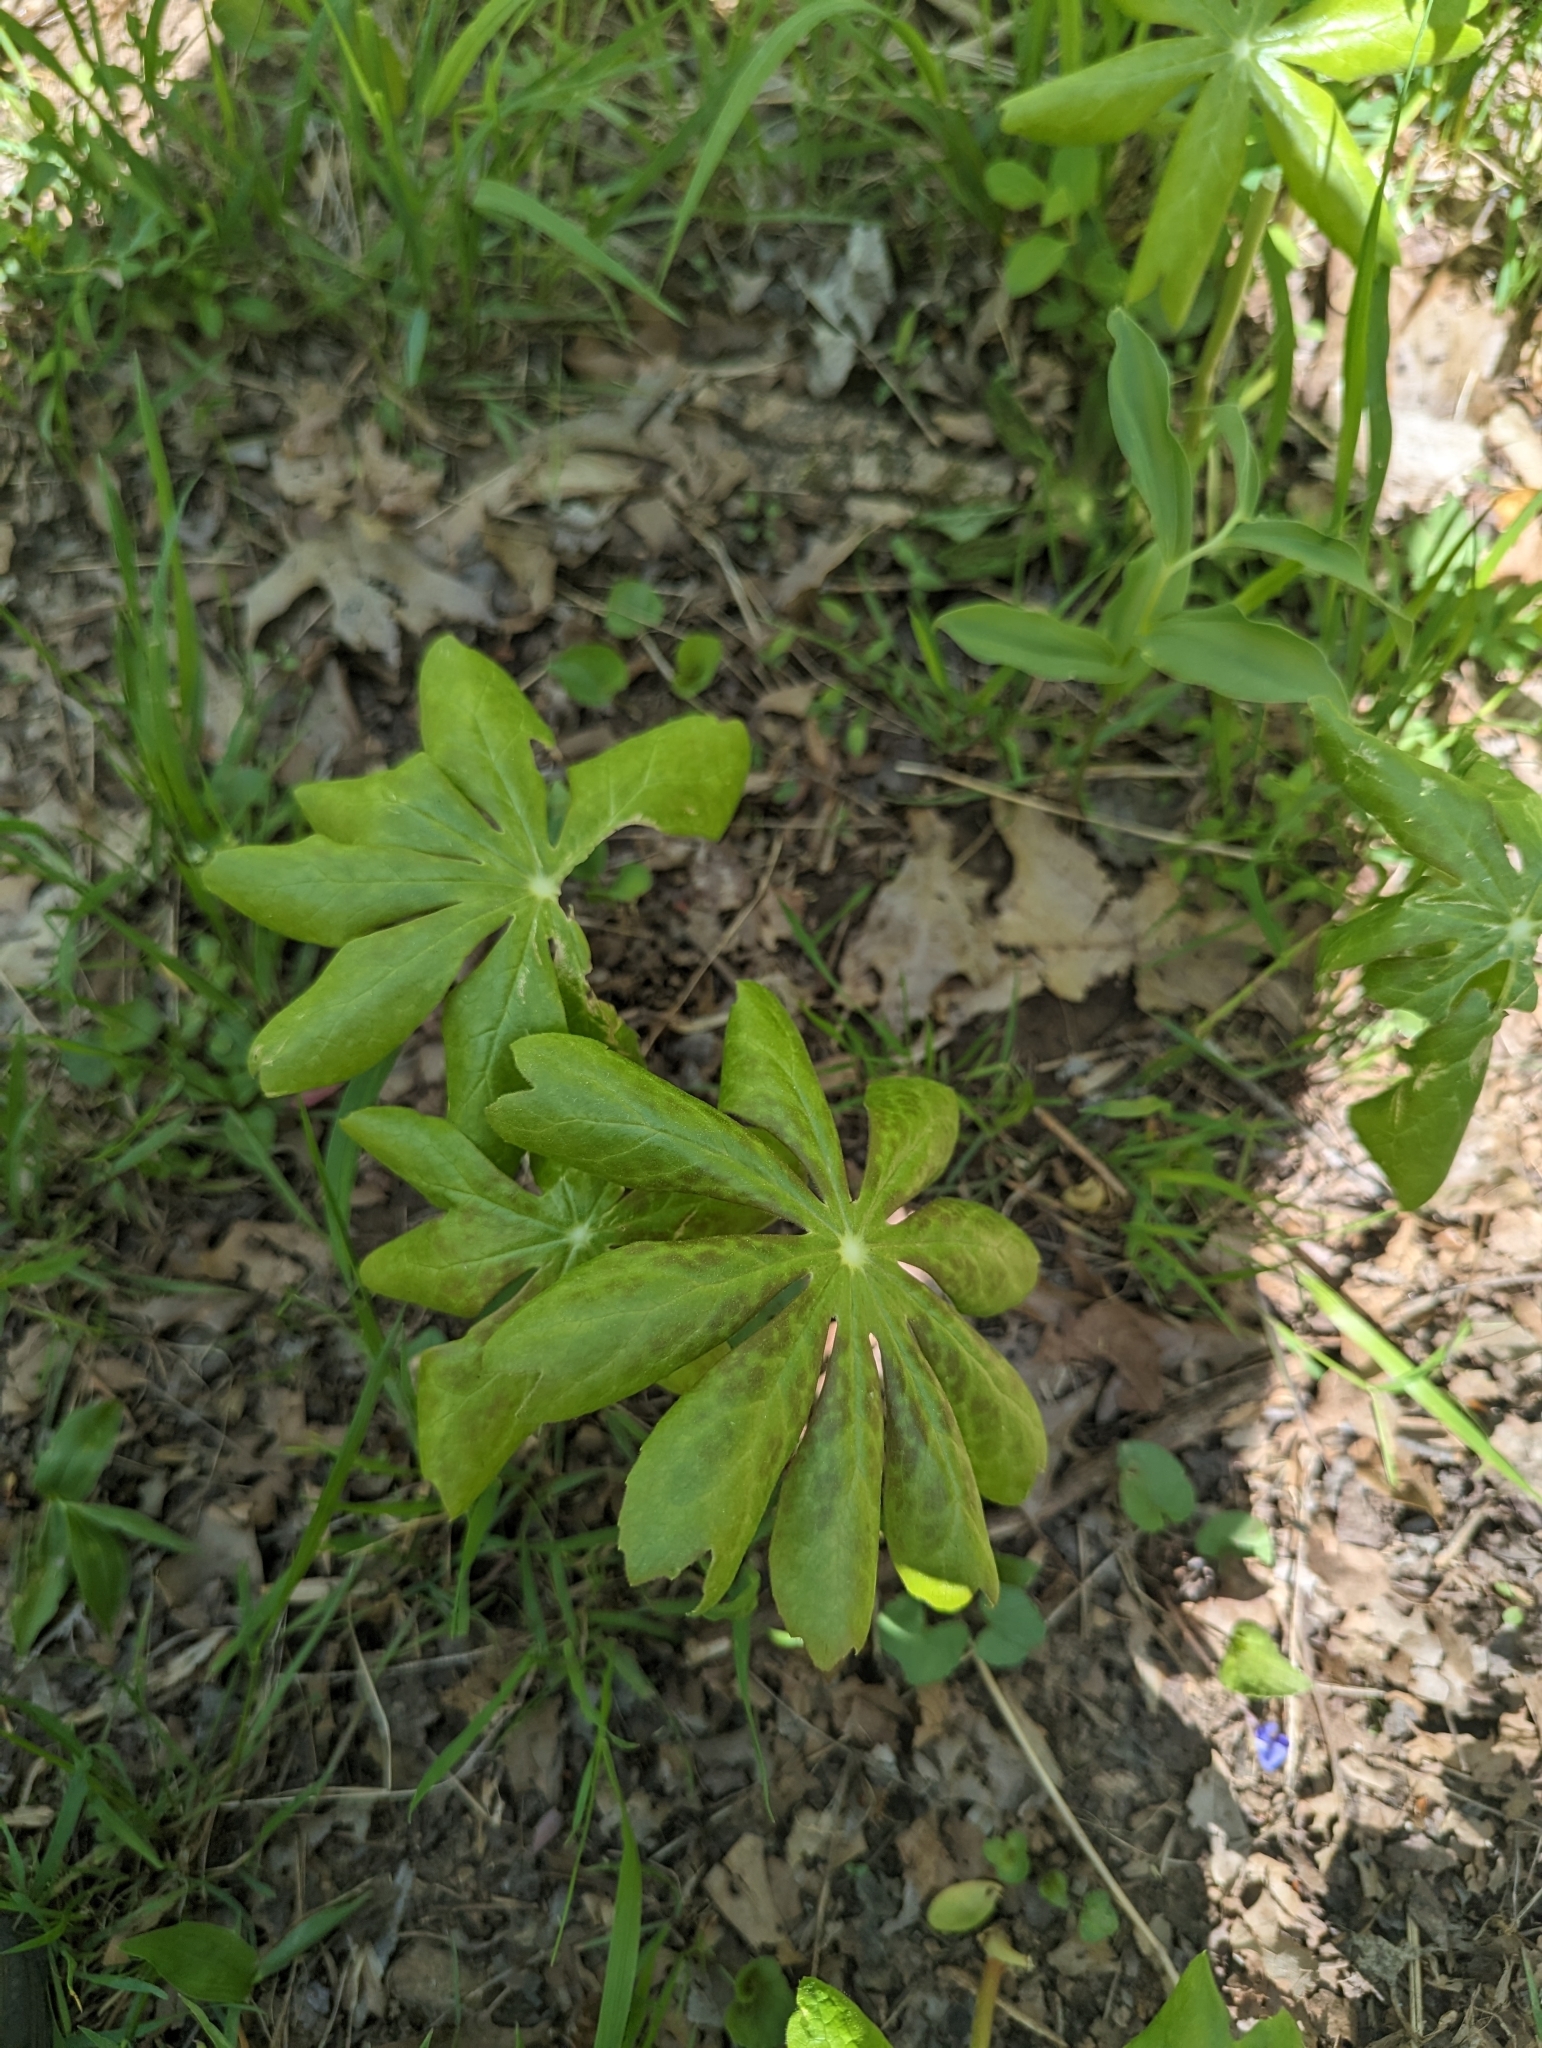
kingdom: Plantae
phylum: Tracheophyta
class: Magnoliopsida
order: Ranunculales
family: Berberidaceae
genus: Podophyllum
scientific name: Podophyllum peltatum
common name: Wild mandrake
